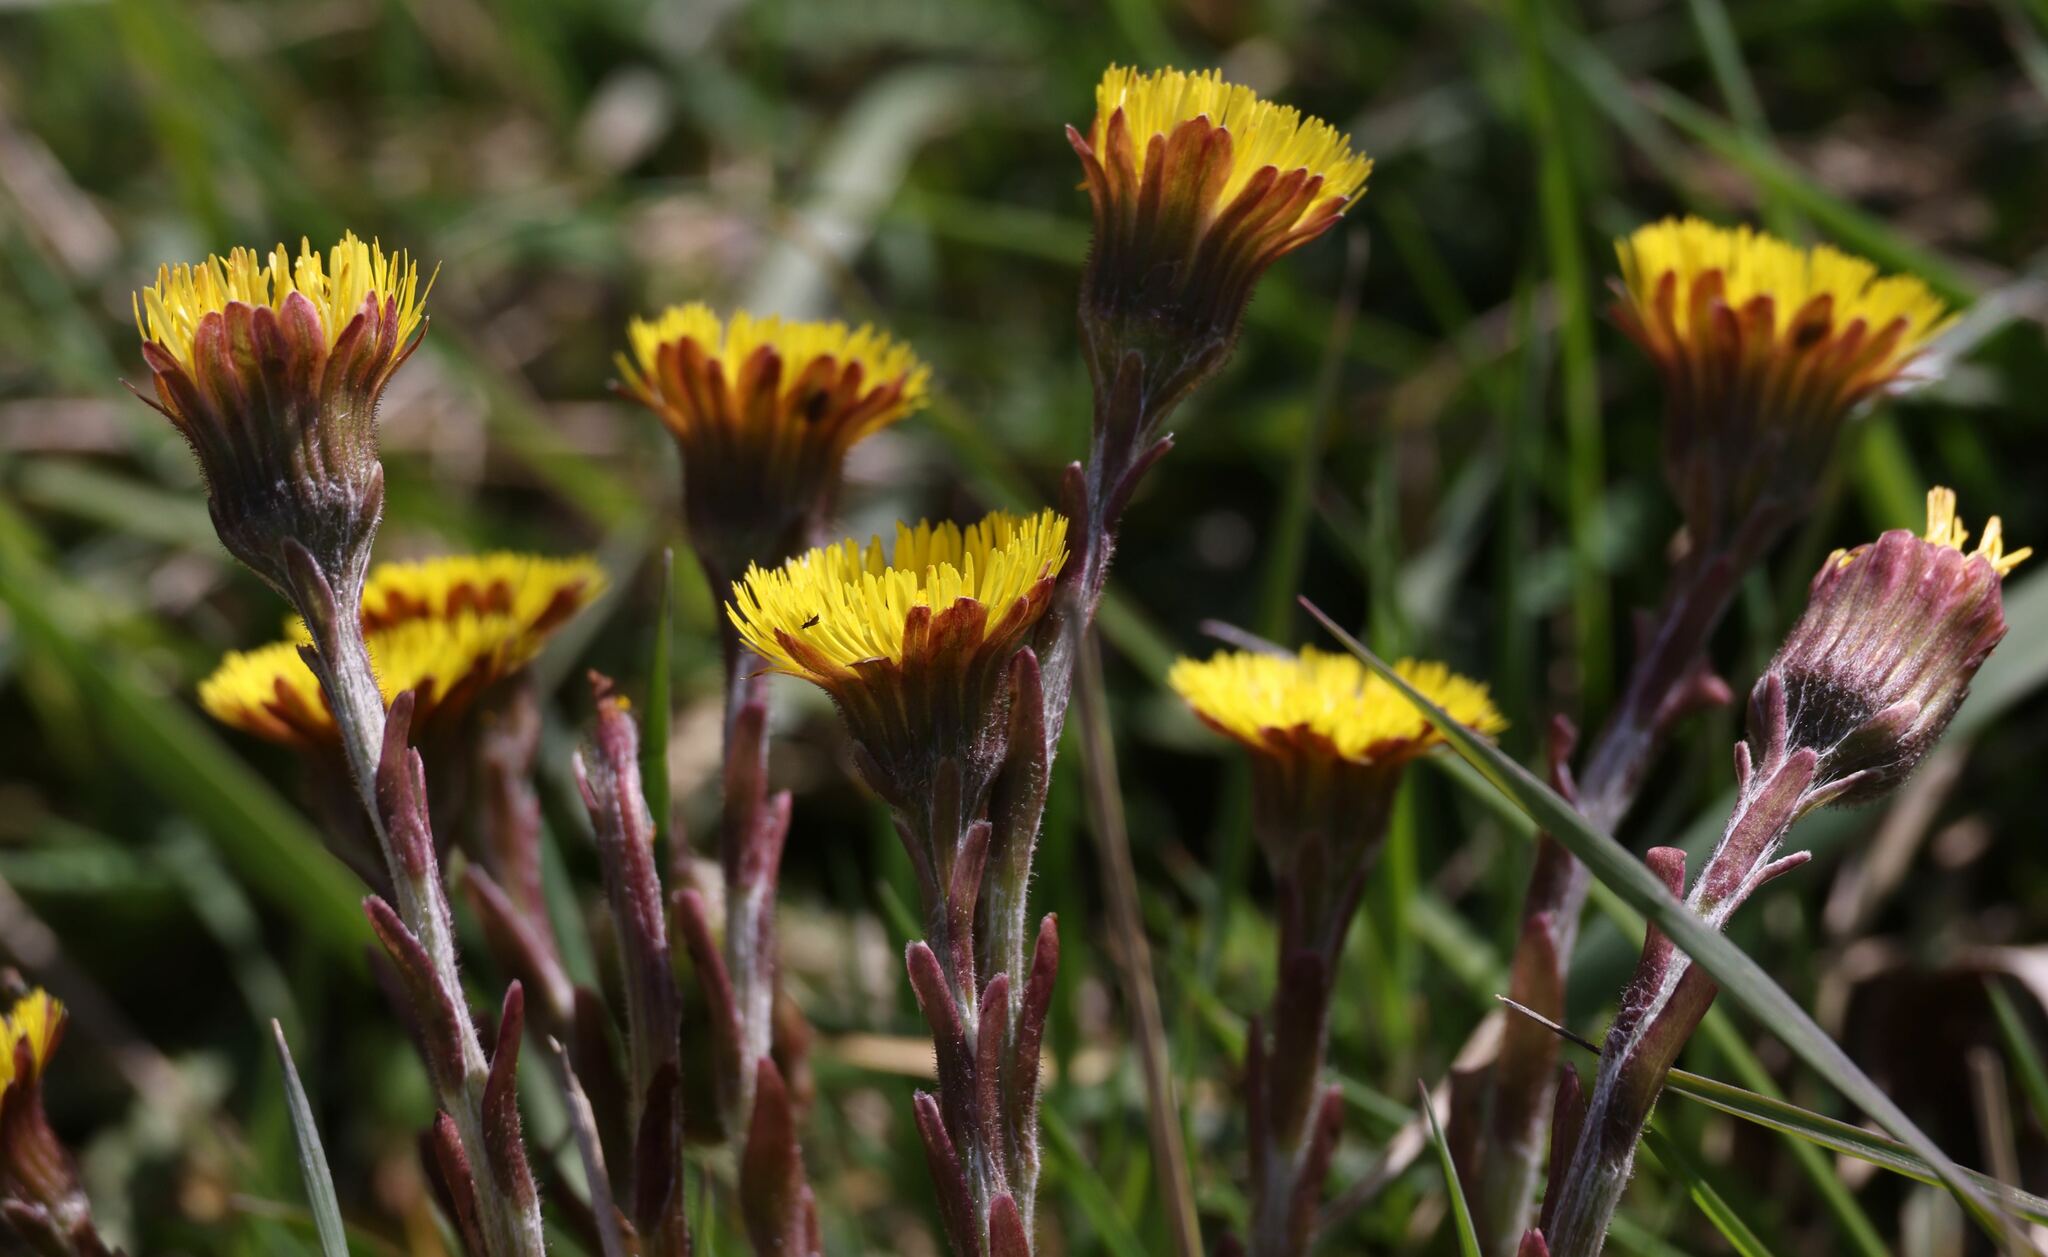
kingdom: Plantae
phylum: Tracheophyta
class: Magnoliopsida
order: Asterales
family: Asteraceae
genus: Tussilago
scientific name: Tussilago farfara
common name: Coltsfoot
